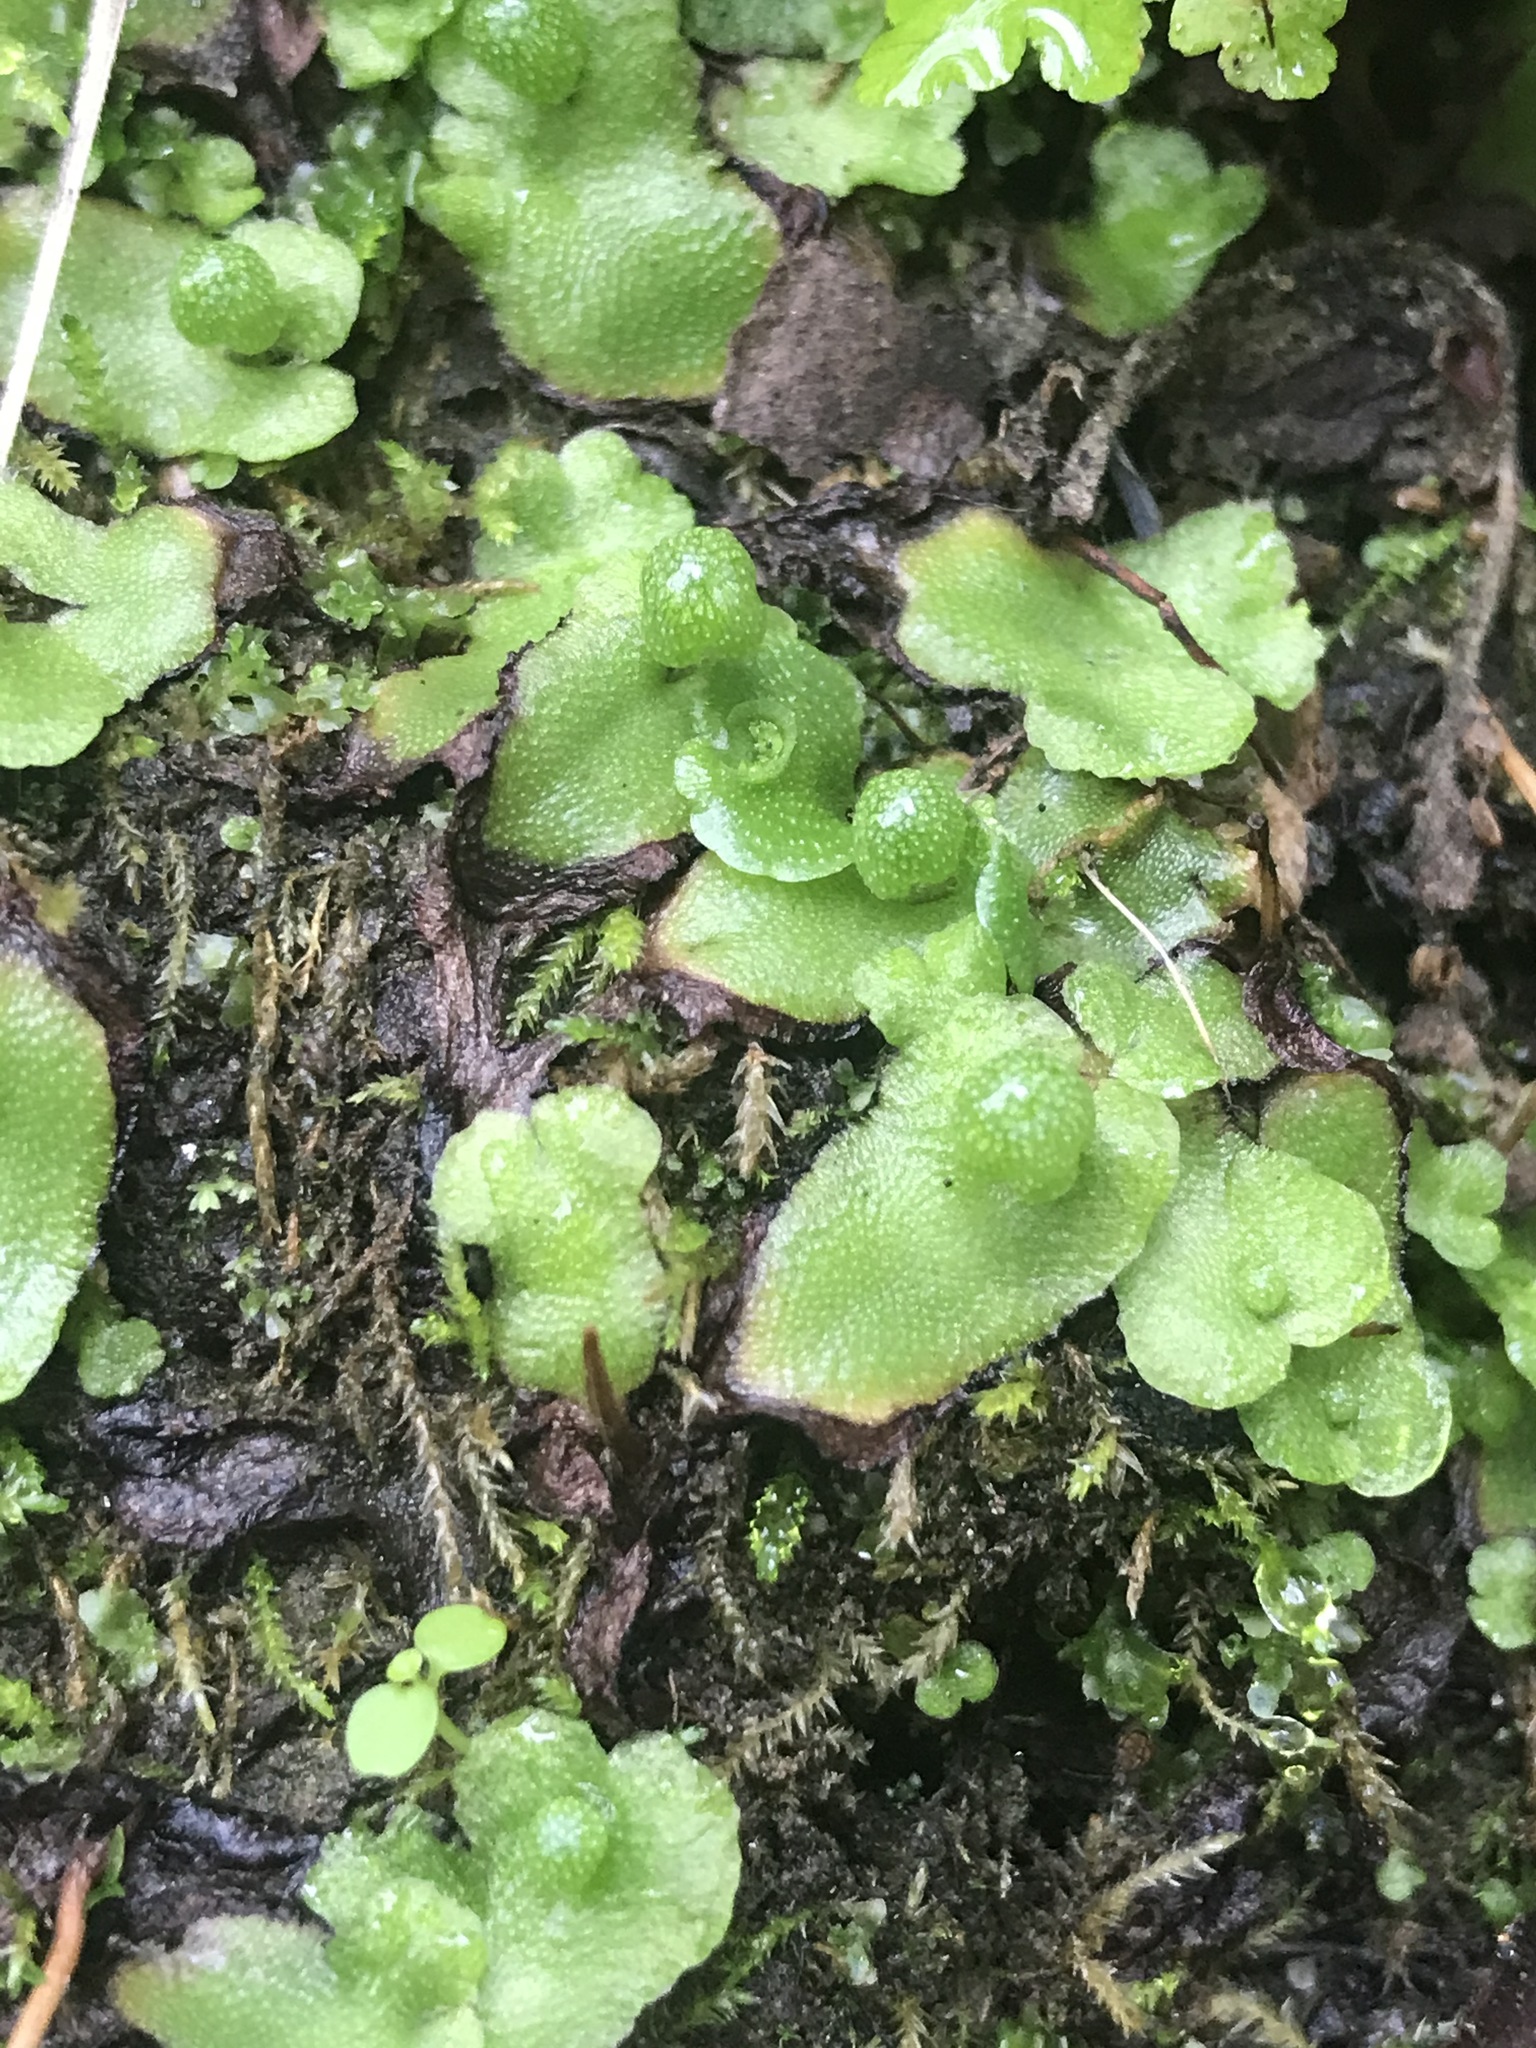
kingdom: Plantae
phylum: Marchantiophyta
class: Marchantiopsida
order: Marchantiales
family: Aytoniaceae
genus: Asterella
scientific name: Asterella californica
